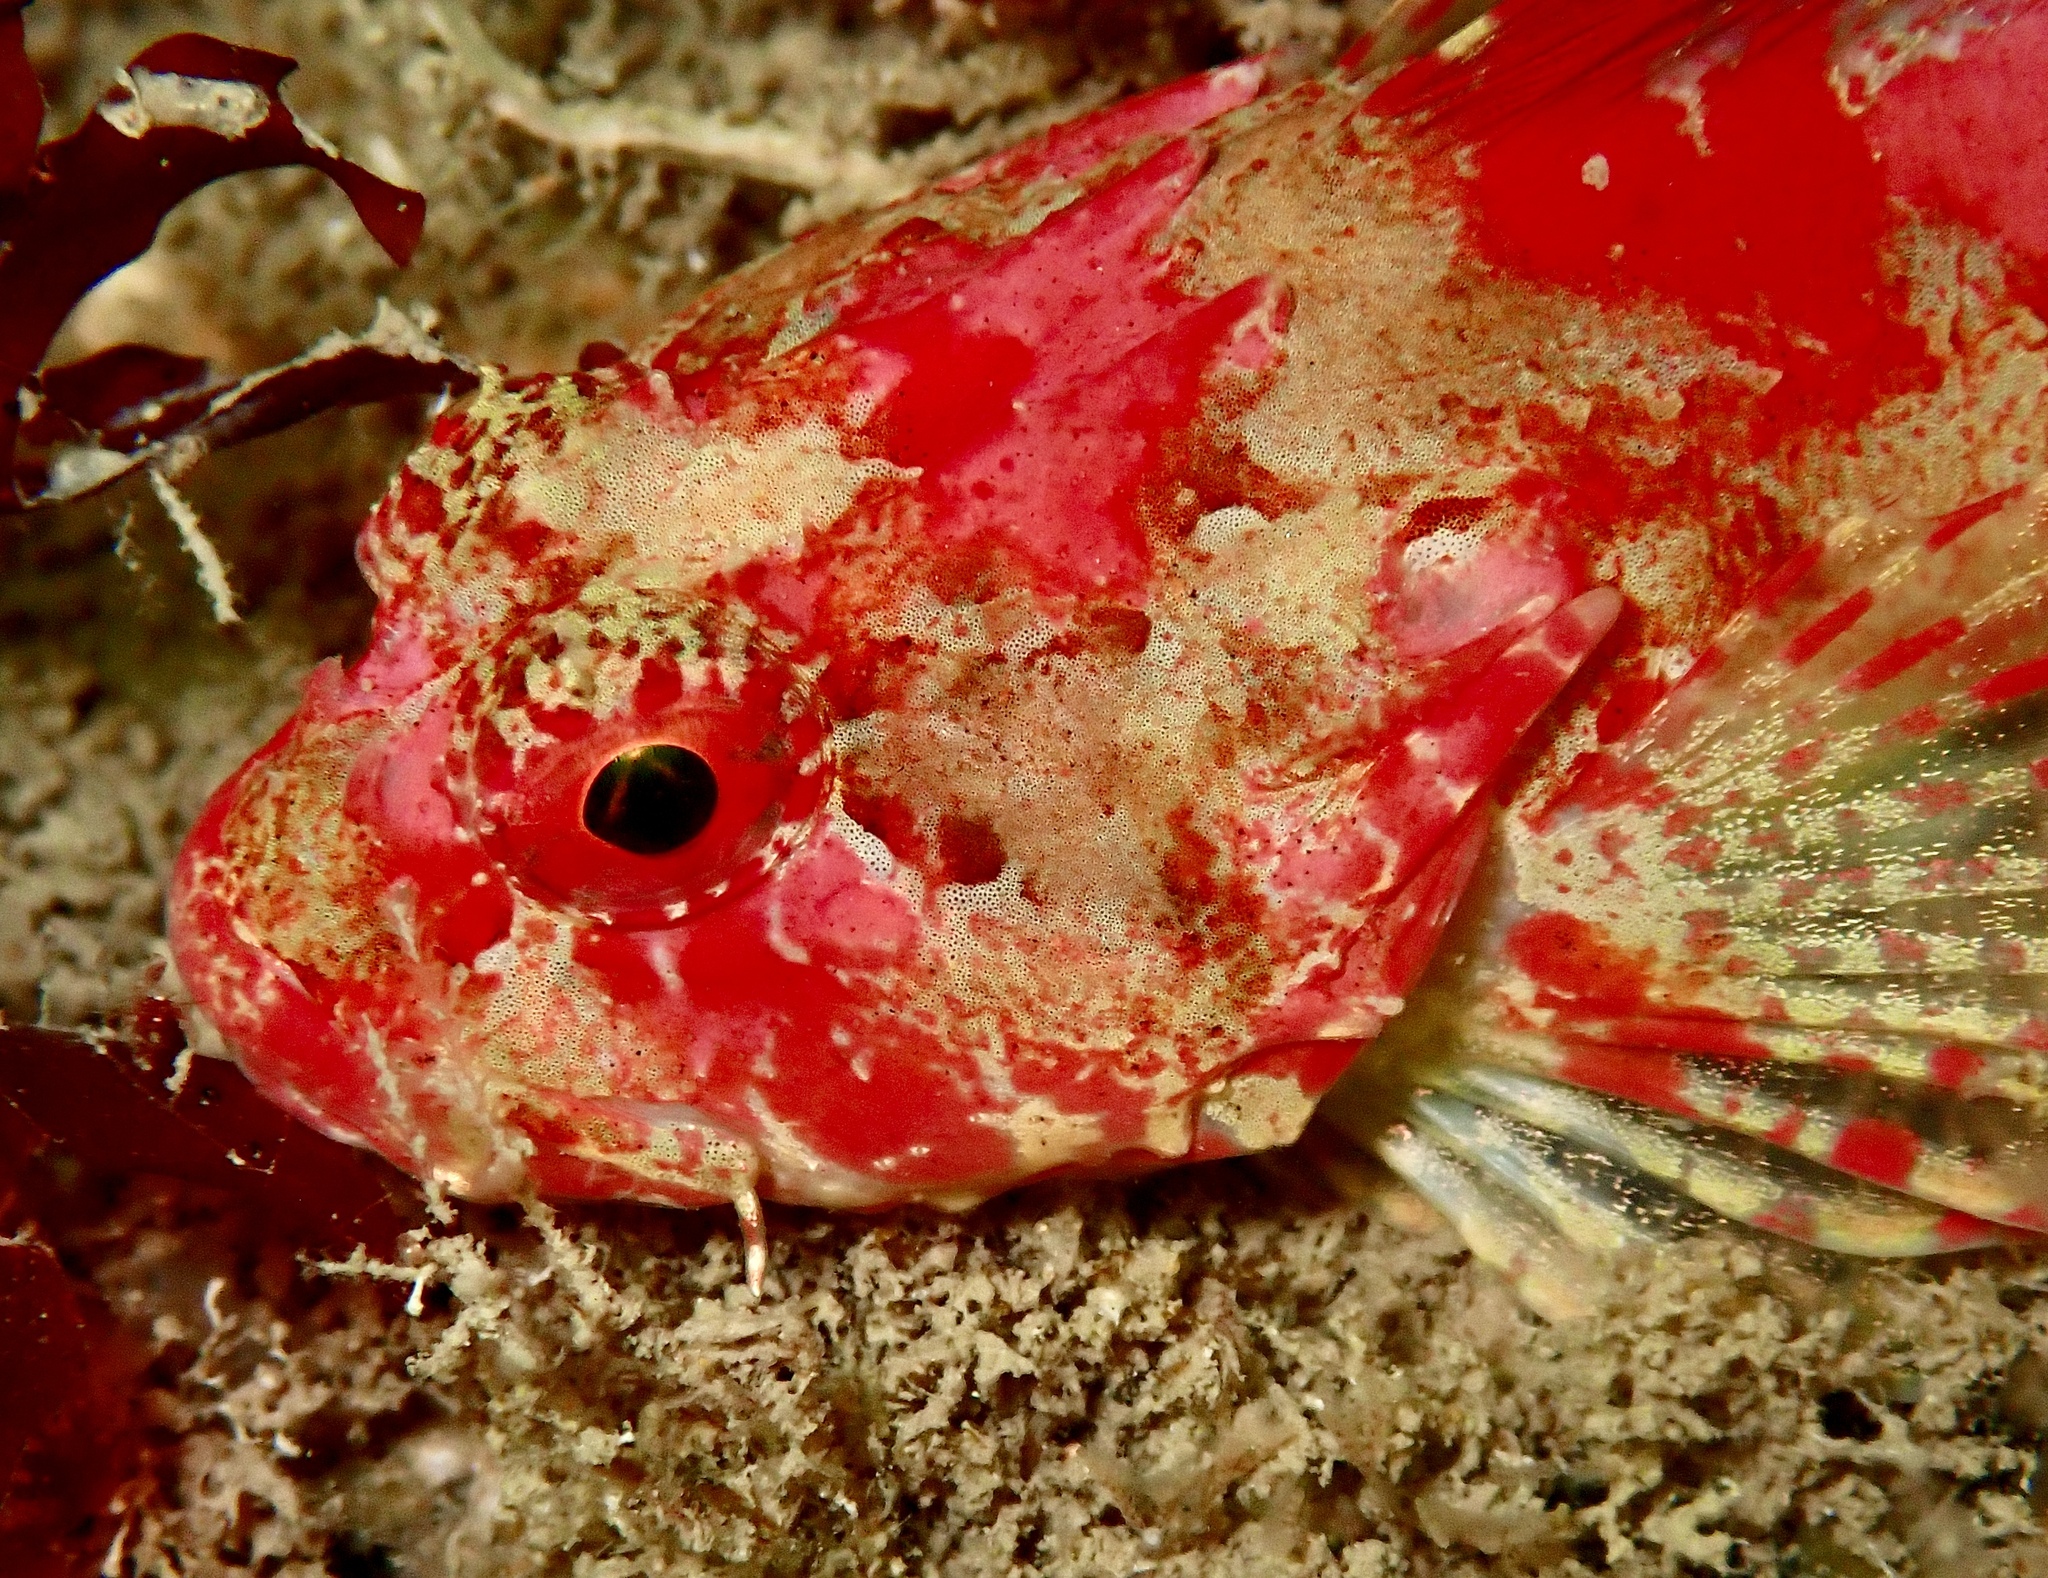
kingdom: Animalia
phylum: Chordata
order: Scorpaeniformes
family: Cottidae
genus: Taurulus
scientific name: Taurulus bubalis
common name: Sea scorpion
